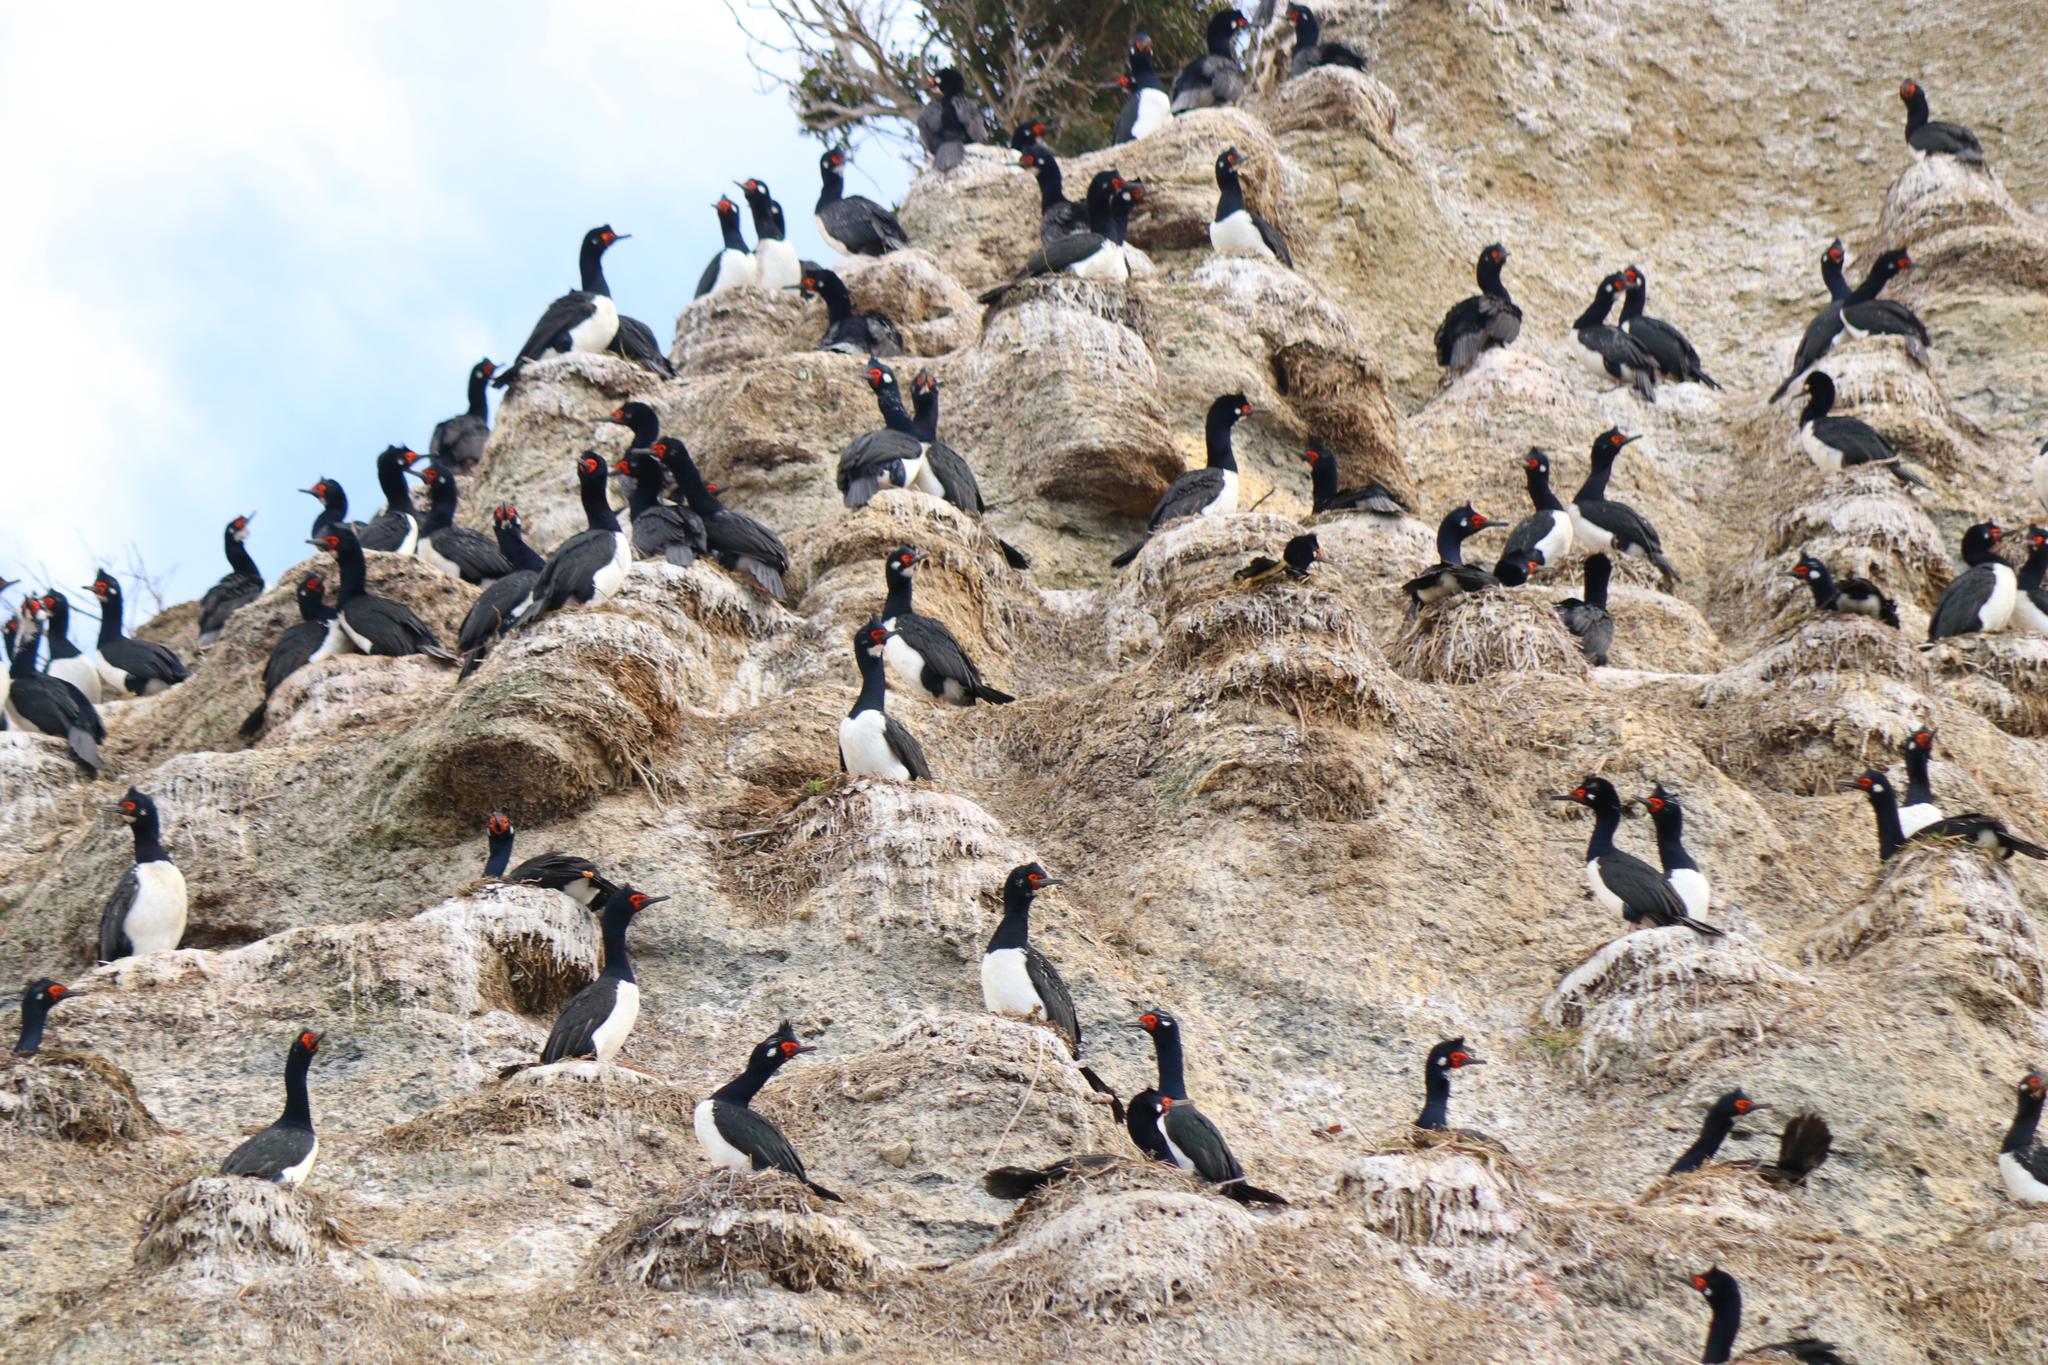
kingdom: Animalia
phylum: Chordata
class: Aves
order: Suliformes
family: Phalacrocoracidae
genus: Phalacrocorax
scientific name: Phalacrocorax magellanicus
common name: Rock shag
